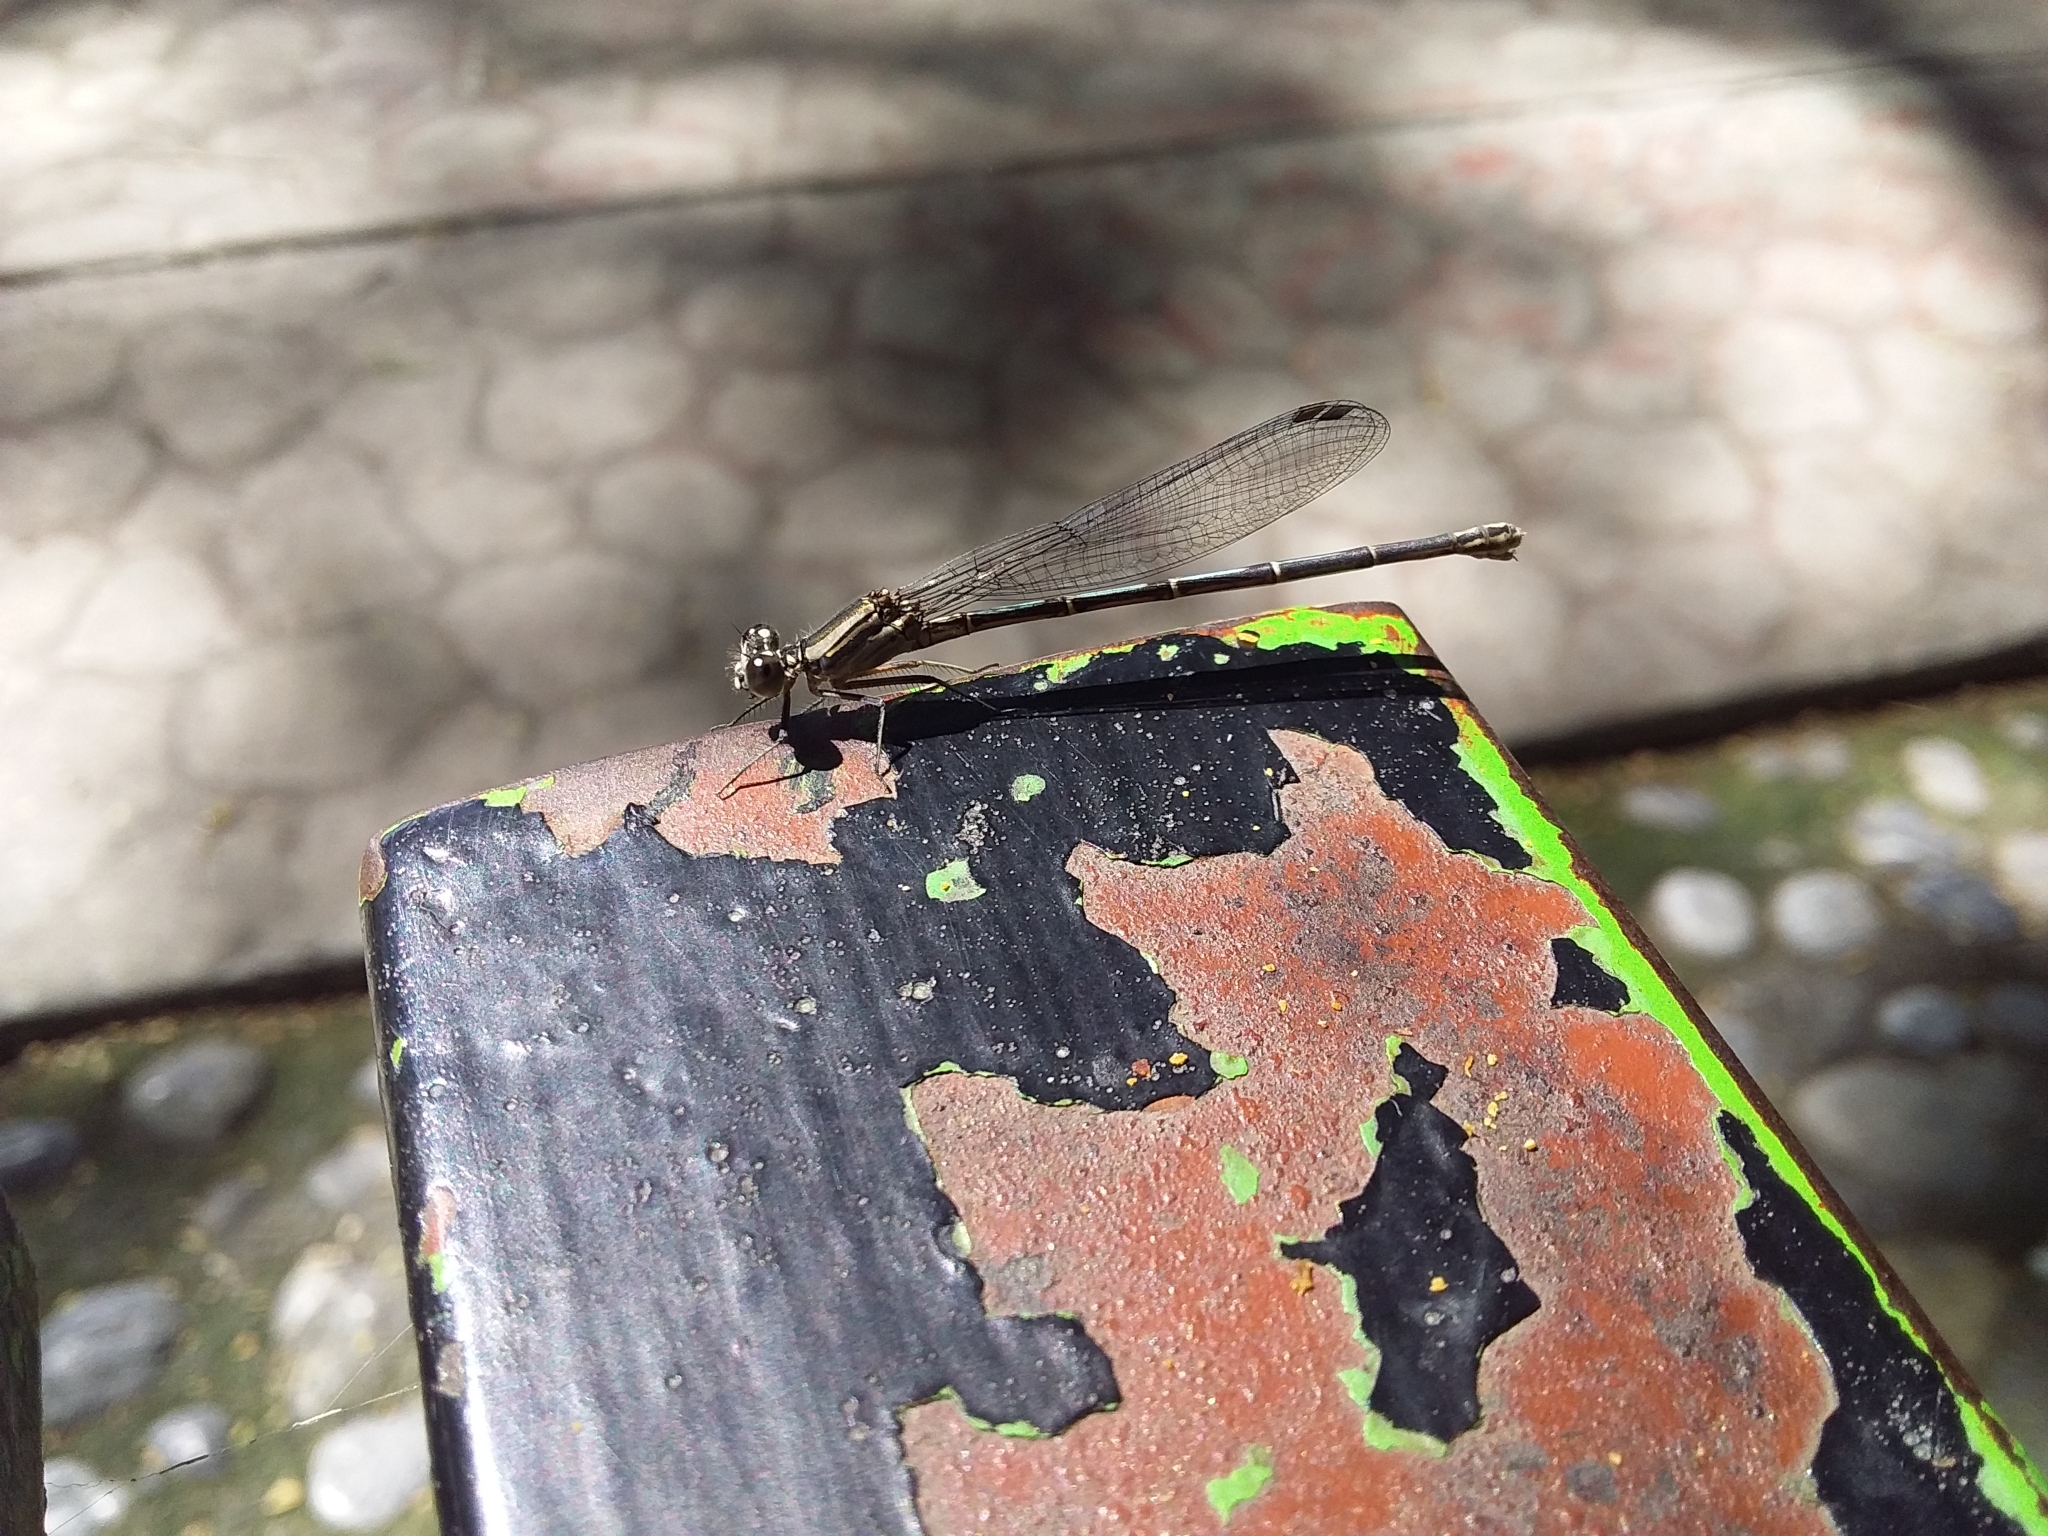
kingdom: Animalia
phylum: Arthropoda
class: Insecta
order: Odonata
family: Coenagrionidae
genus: Argia
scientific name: Argia translata
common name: Dusky dancer
